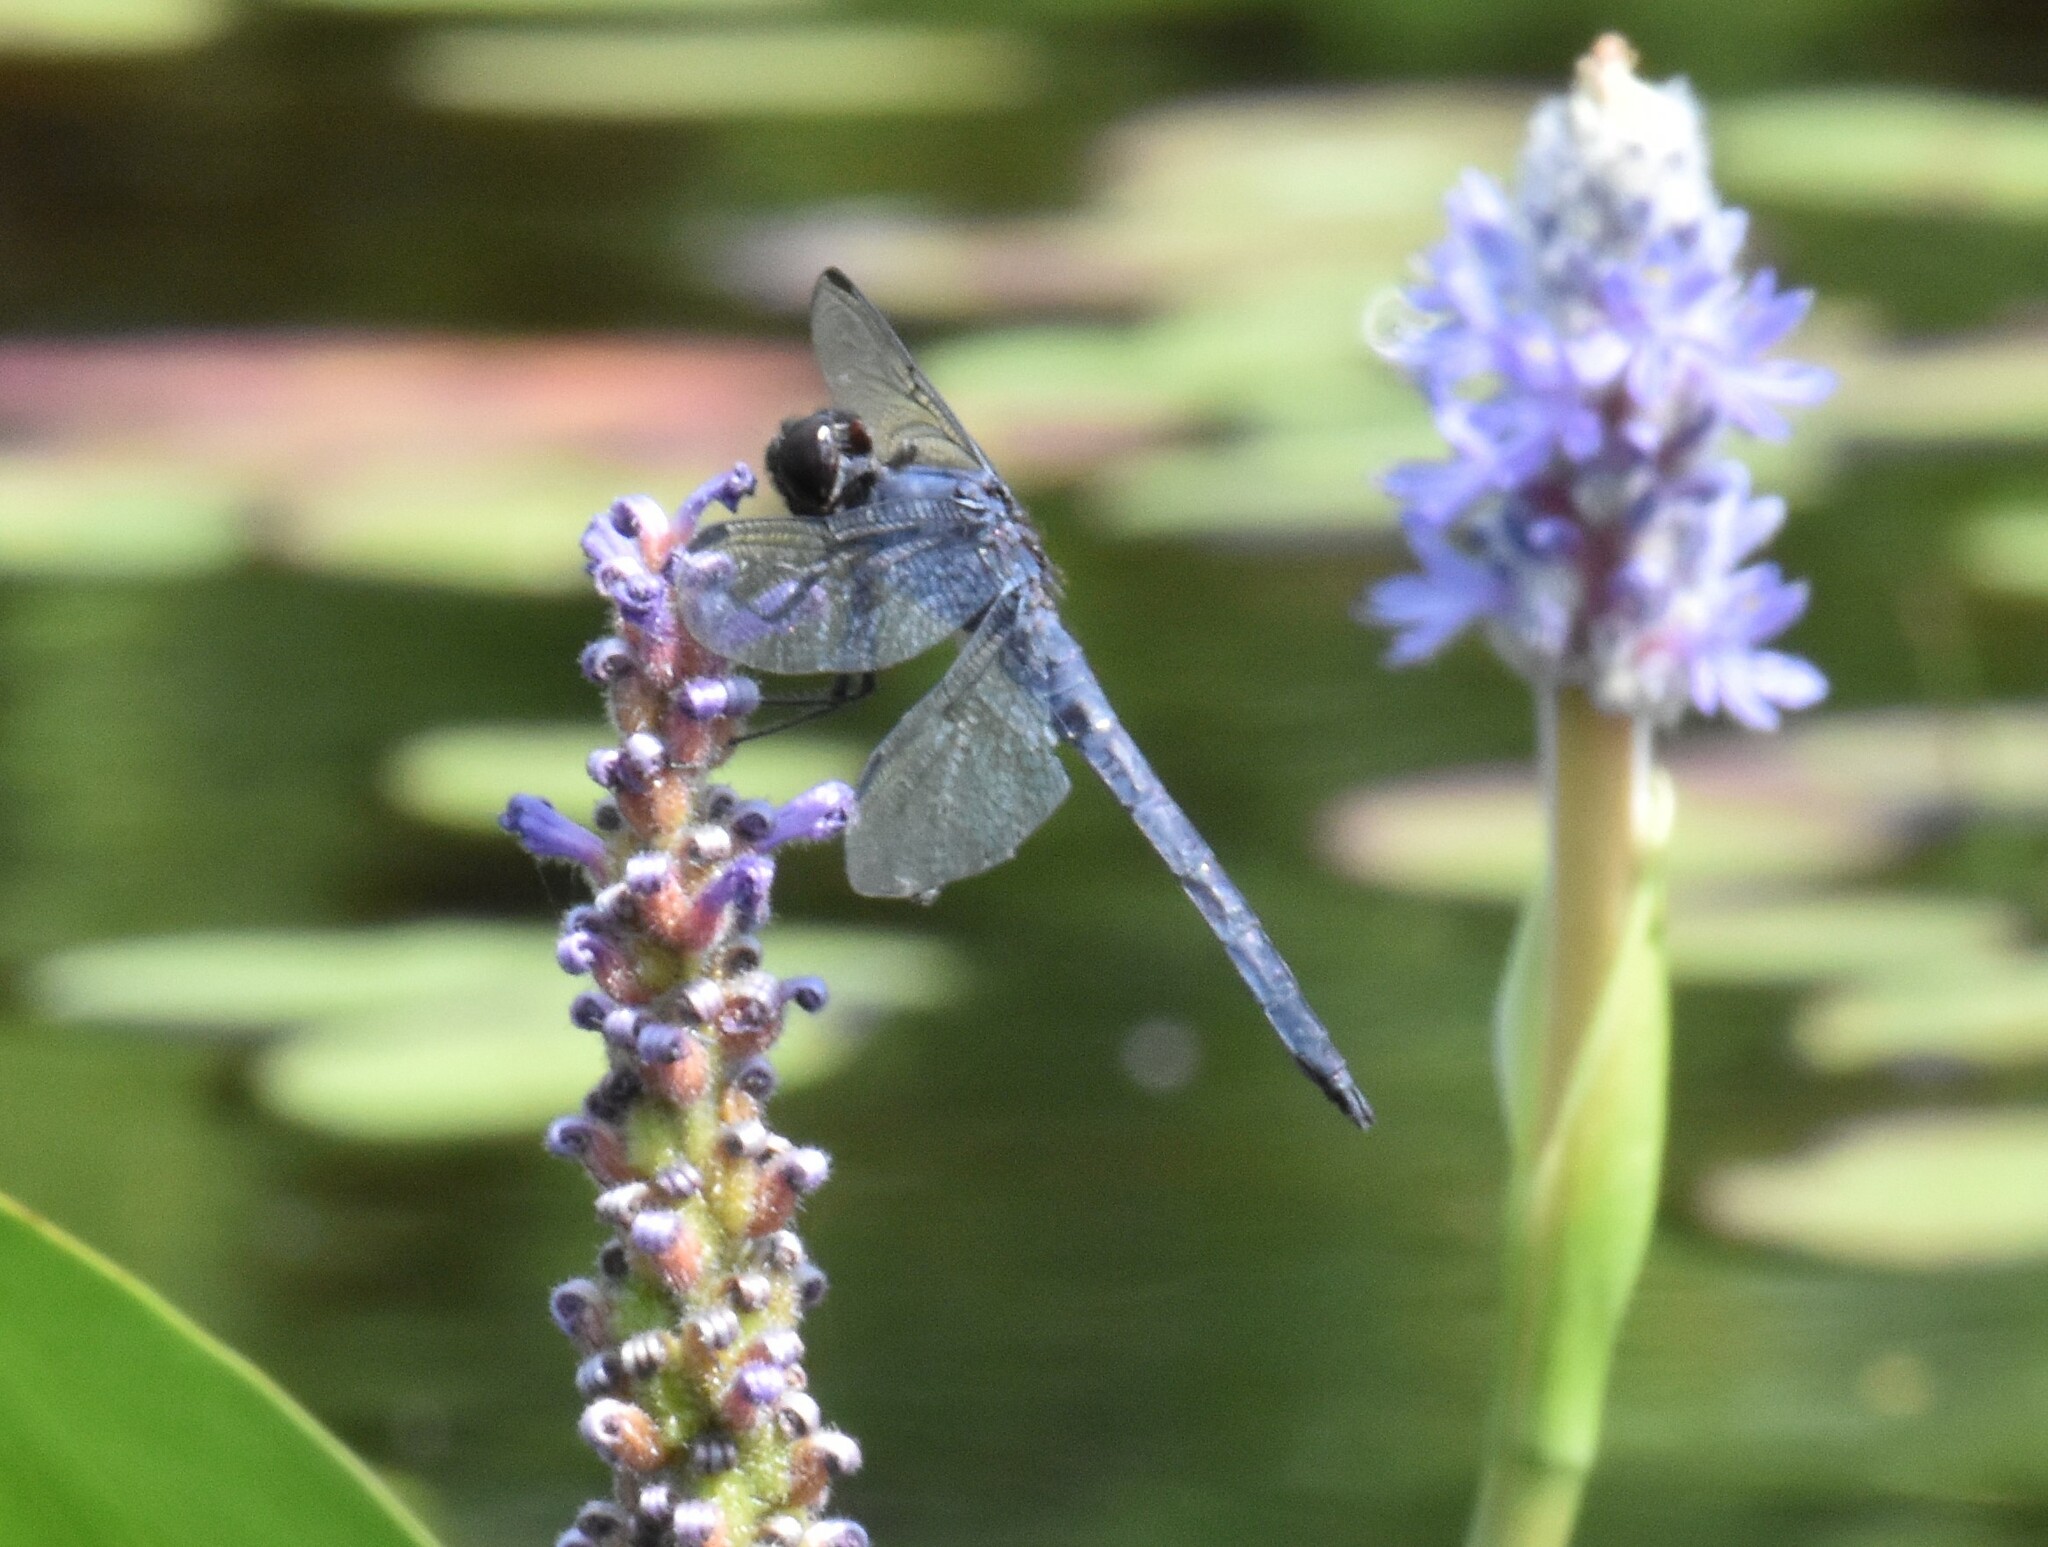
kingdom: Animalia
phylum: Arthropoda
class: Insecta
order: Odonata
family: Libellulidae
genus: Libellula
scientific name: Libellula incesta
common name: Slaty skimmer
